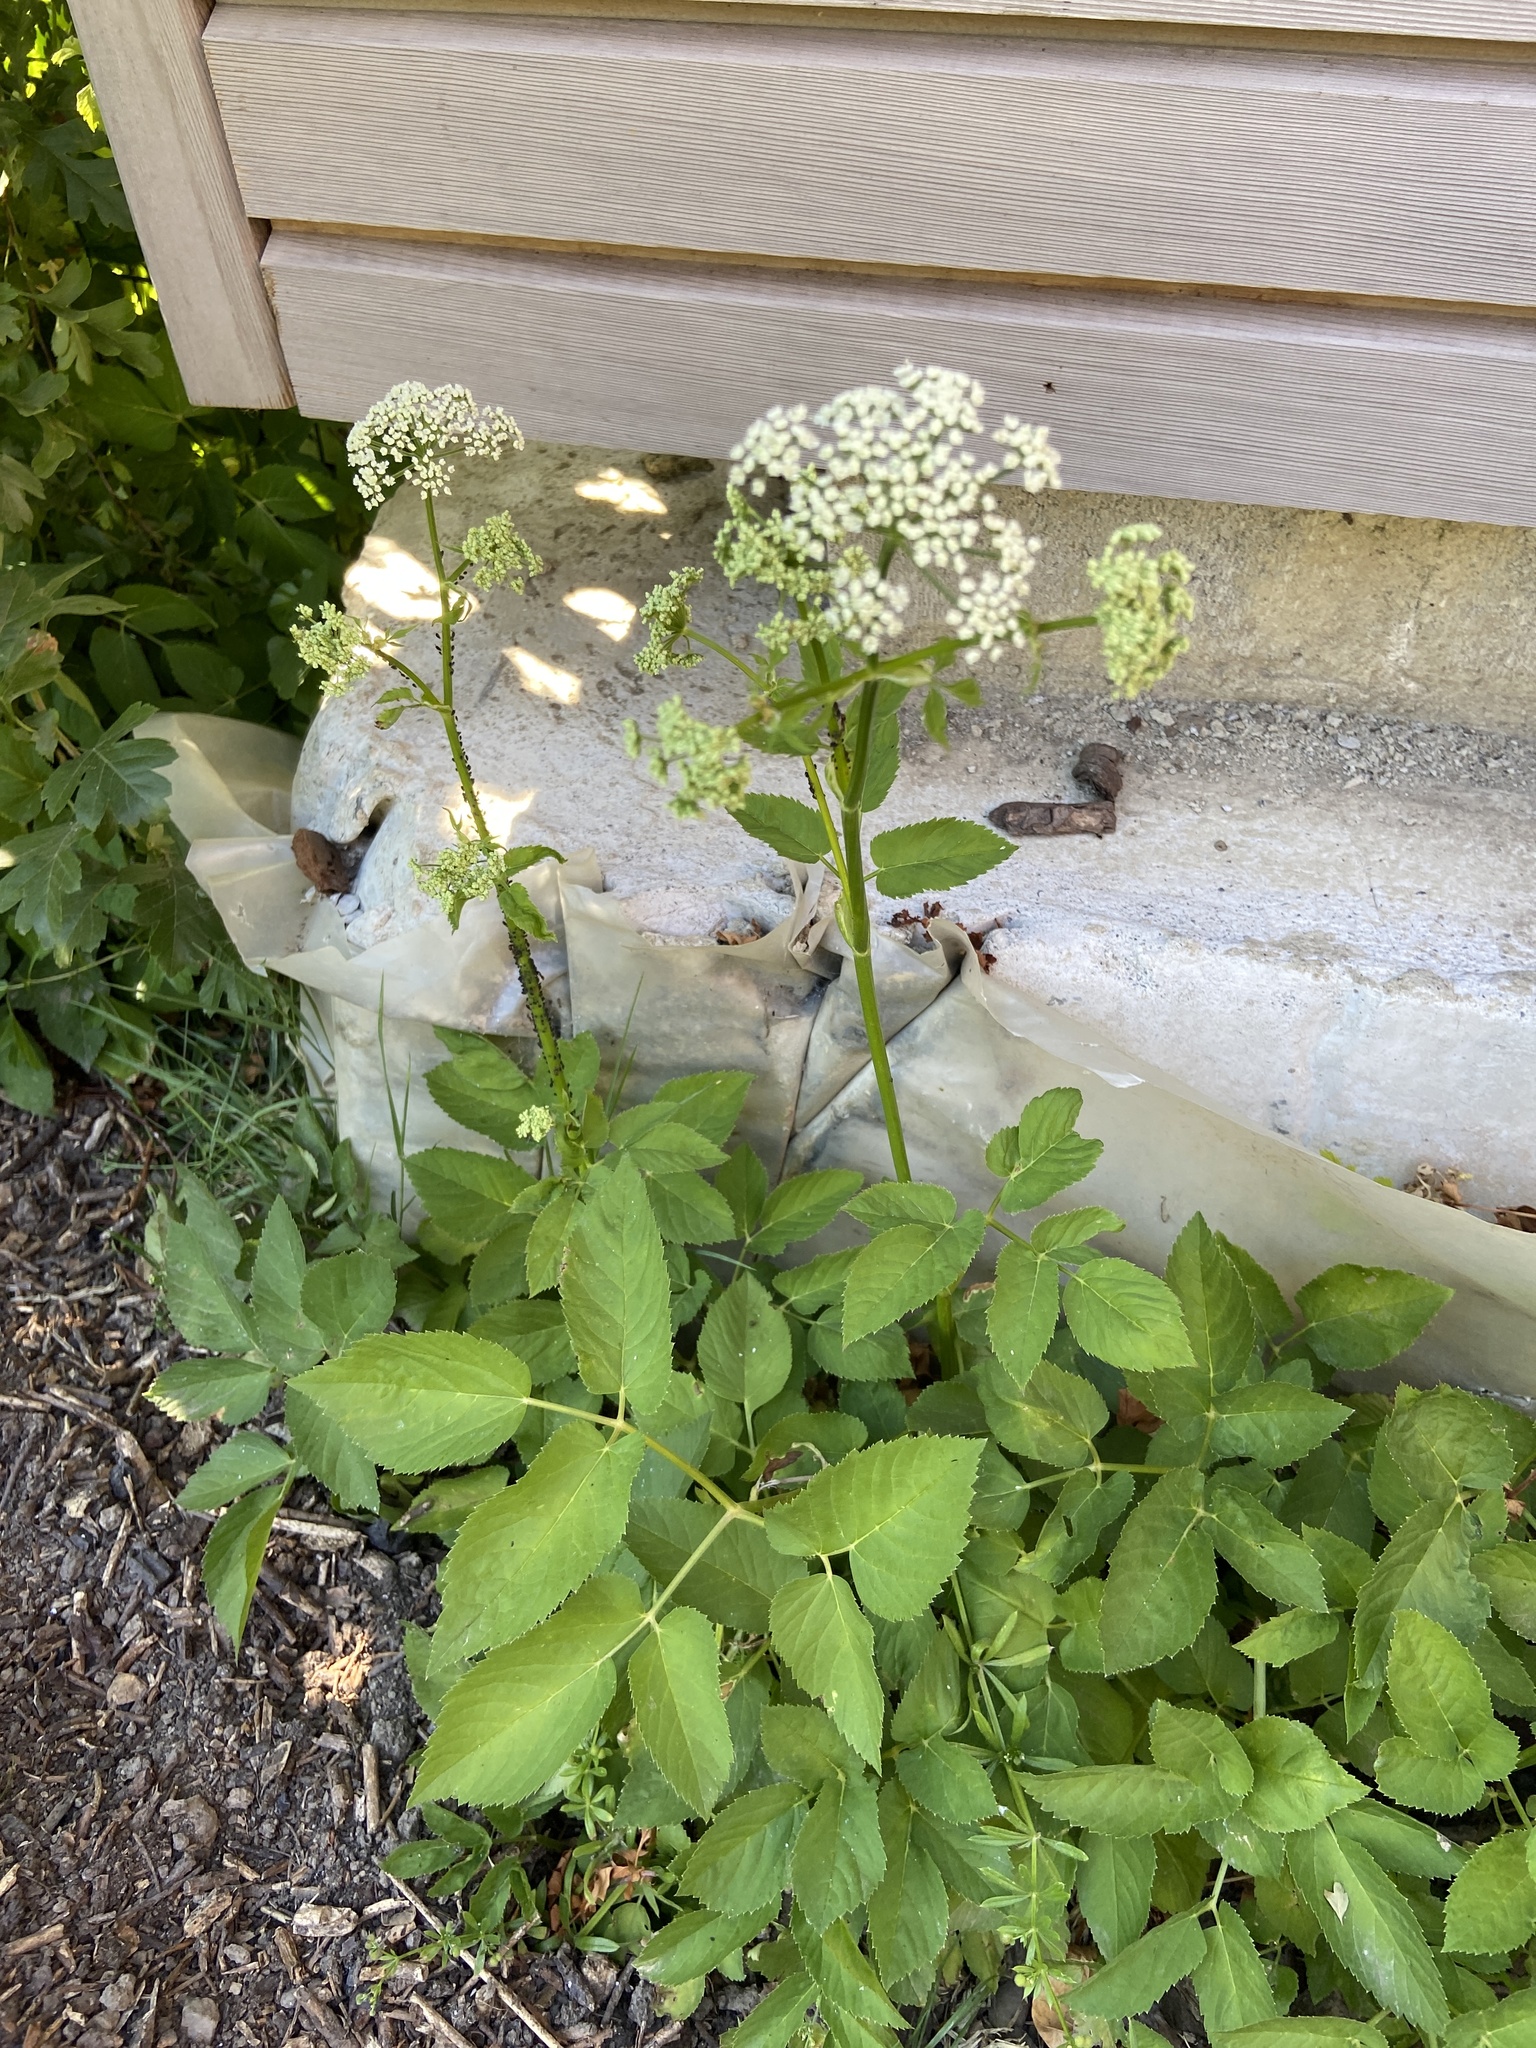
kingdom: Plantae
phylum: Tracheophyta
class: Magnoliopsida
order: Apiales
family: Apiaceae
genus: Aegopodium
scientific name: Aegopodium podagraria
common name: Ground-elder
